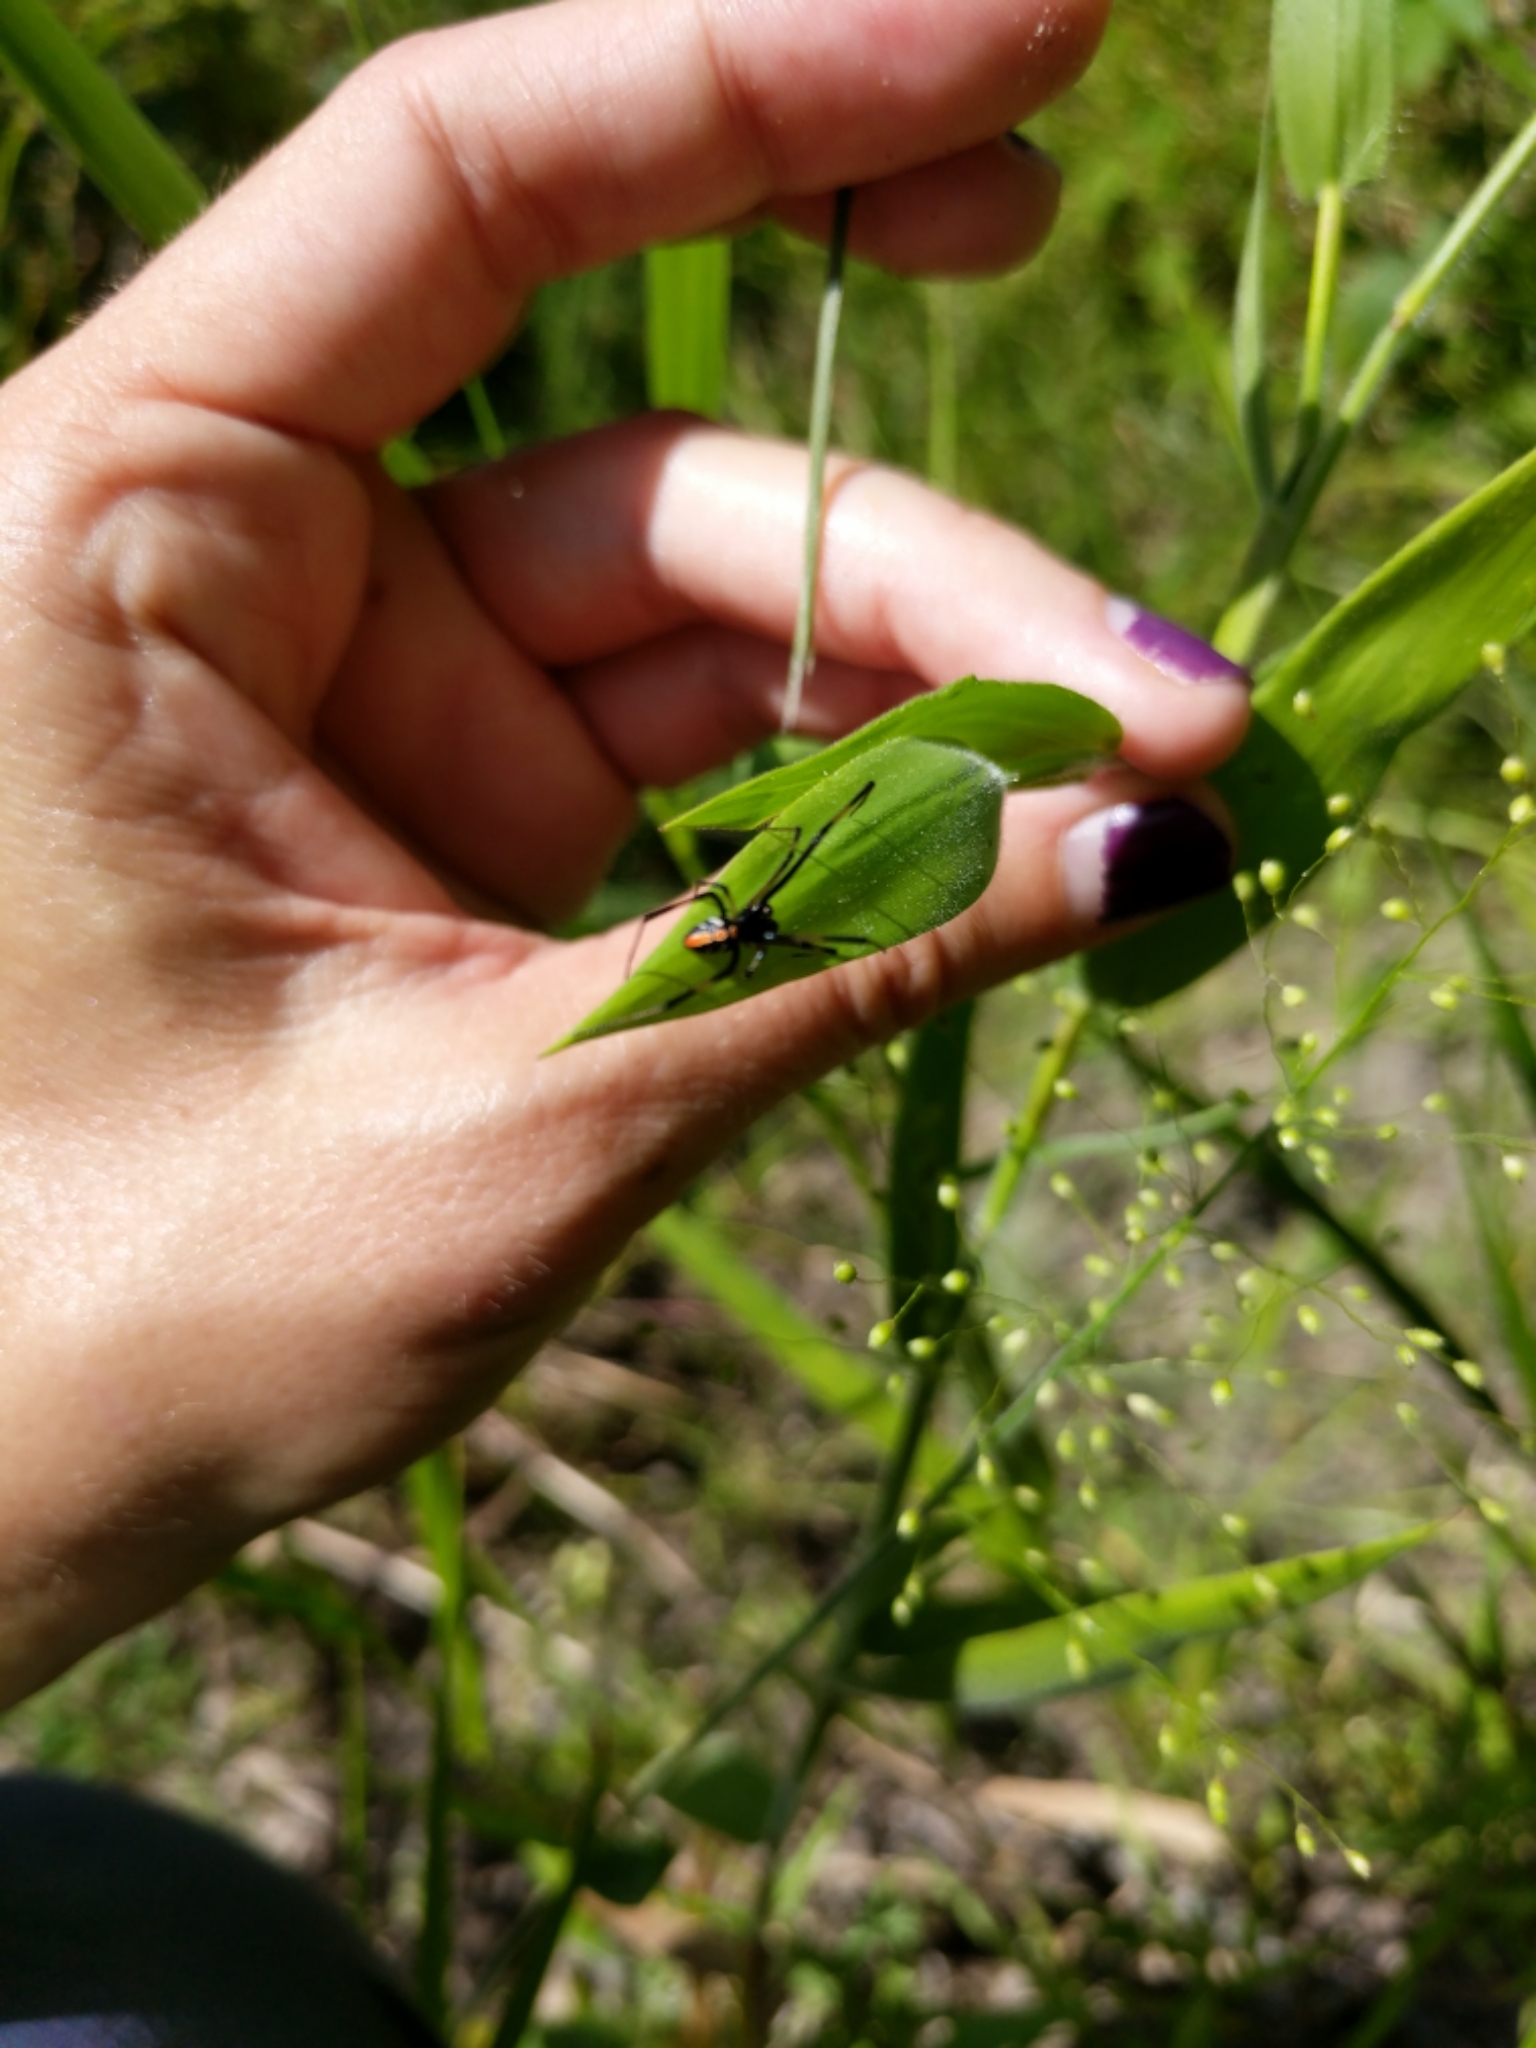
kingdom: Animalia
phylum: Arthropoda
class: Arachnida
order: Araneae
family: Theridiidae
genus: Latrodectus
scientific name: Latrodectus mactans
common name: Cobweb spiders
